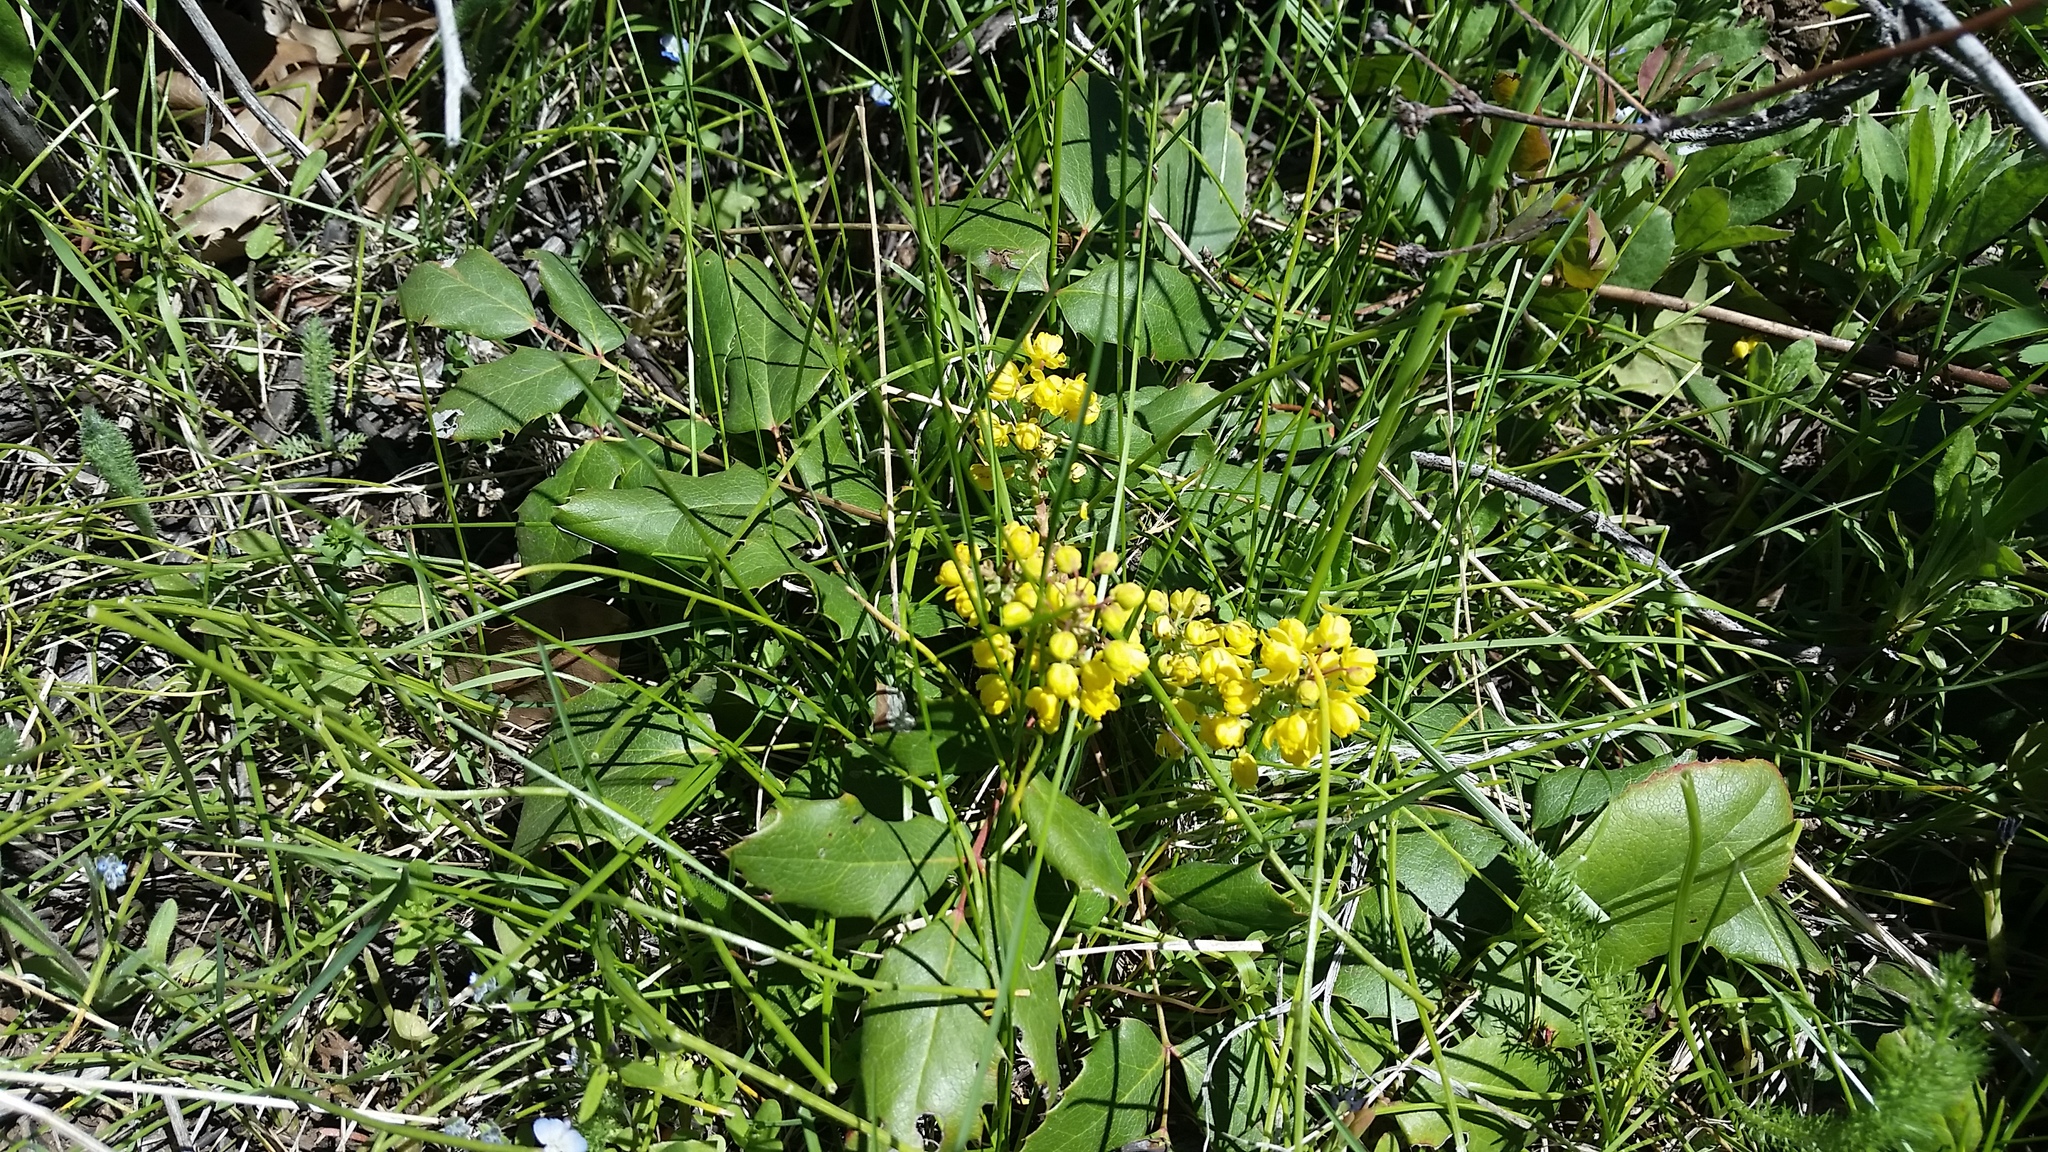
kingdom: Plantae
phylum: Tracheophyta
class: Magnoliopsida
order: Ranunculales
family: Berberidaceae
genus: Mahonia
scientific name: Mahonia repens
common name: Creeping oregon-grape
